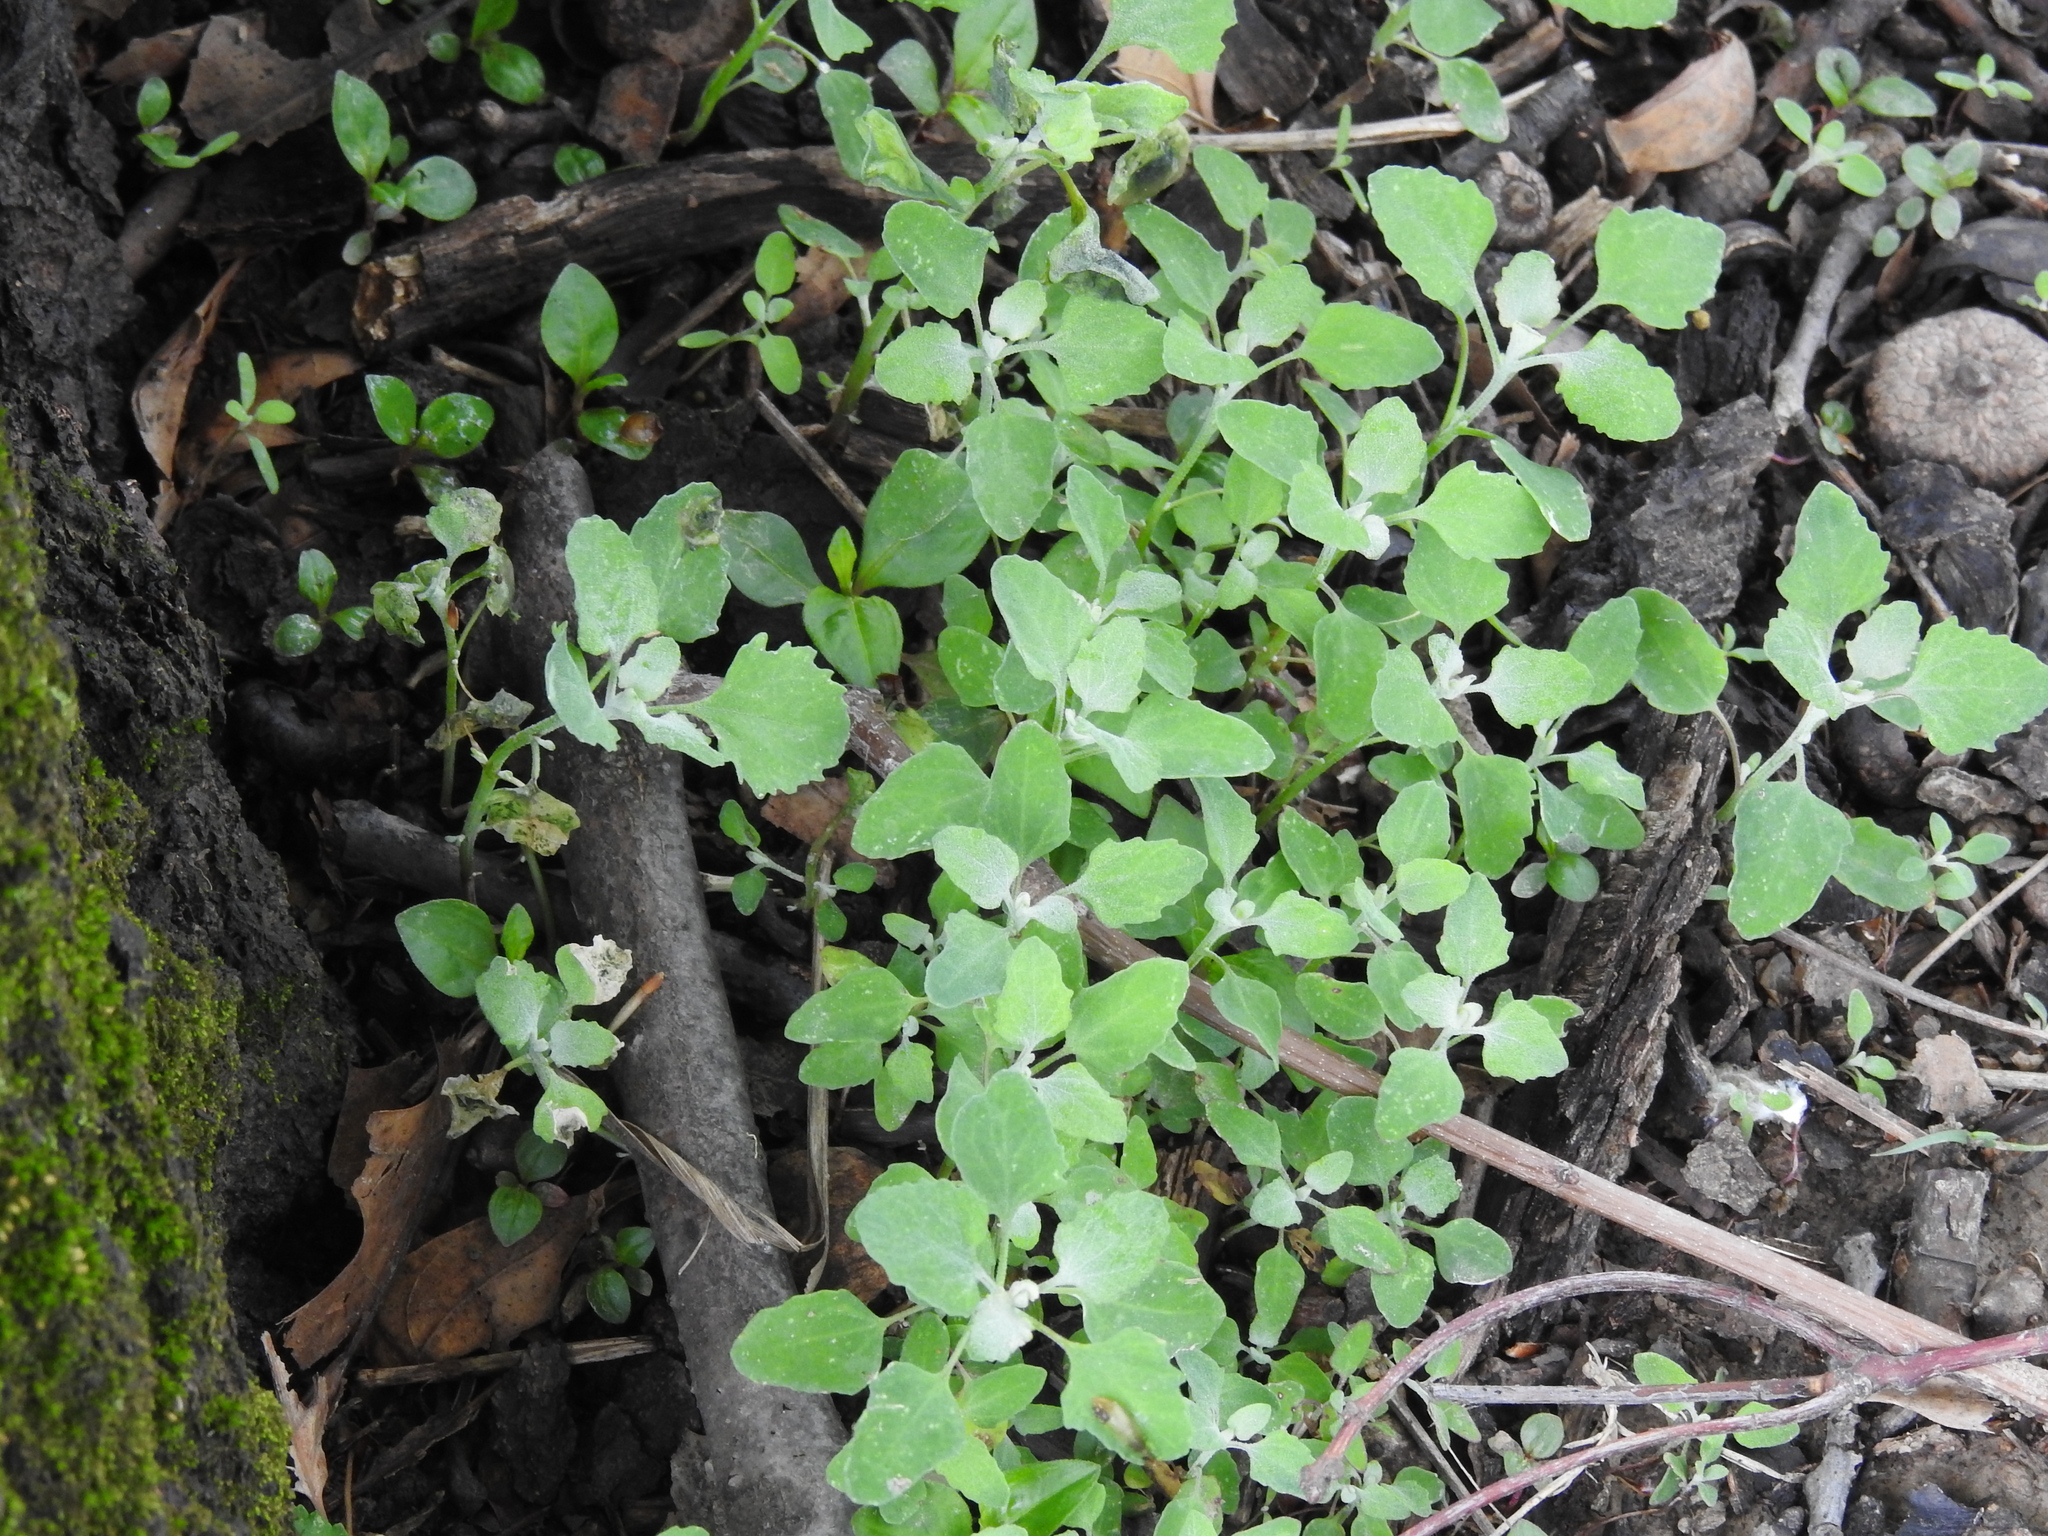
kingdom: Plantae
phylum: Tracheophyta
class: Magnoliopsida
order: Caryophyllales
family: Amaranthaceae
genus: Chenopodium
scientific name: Chenopodium album
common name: Fat-hen
